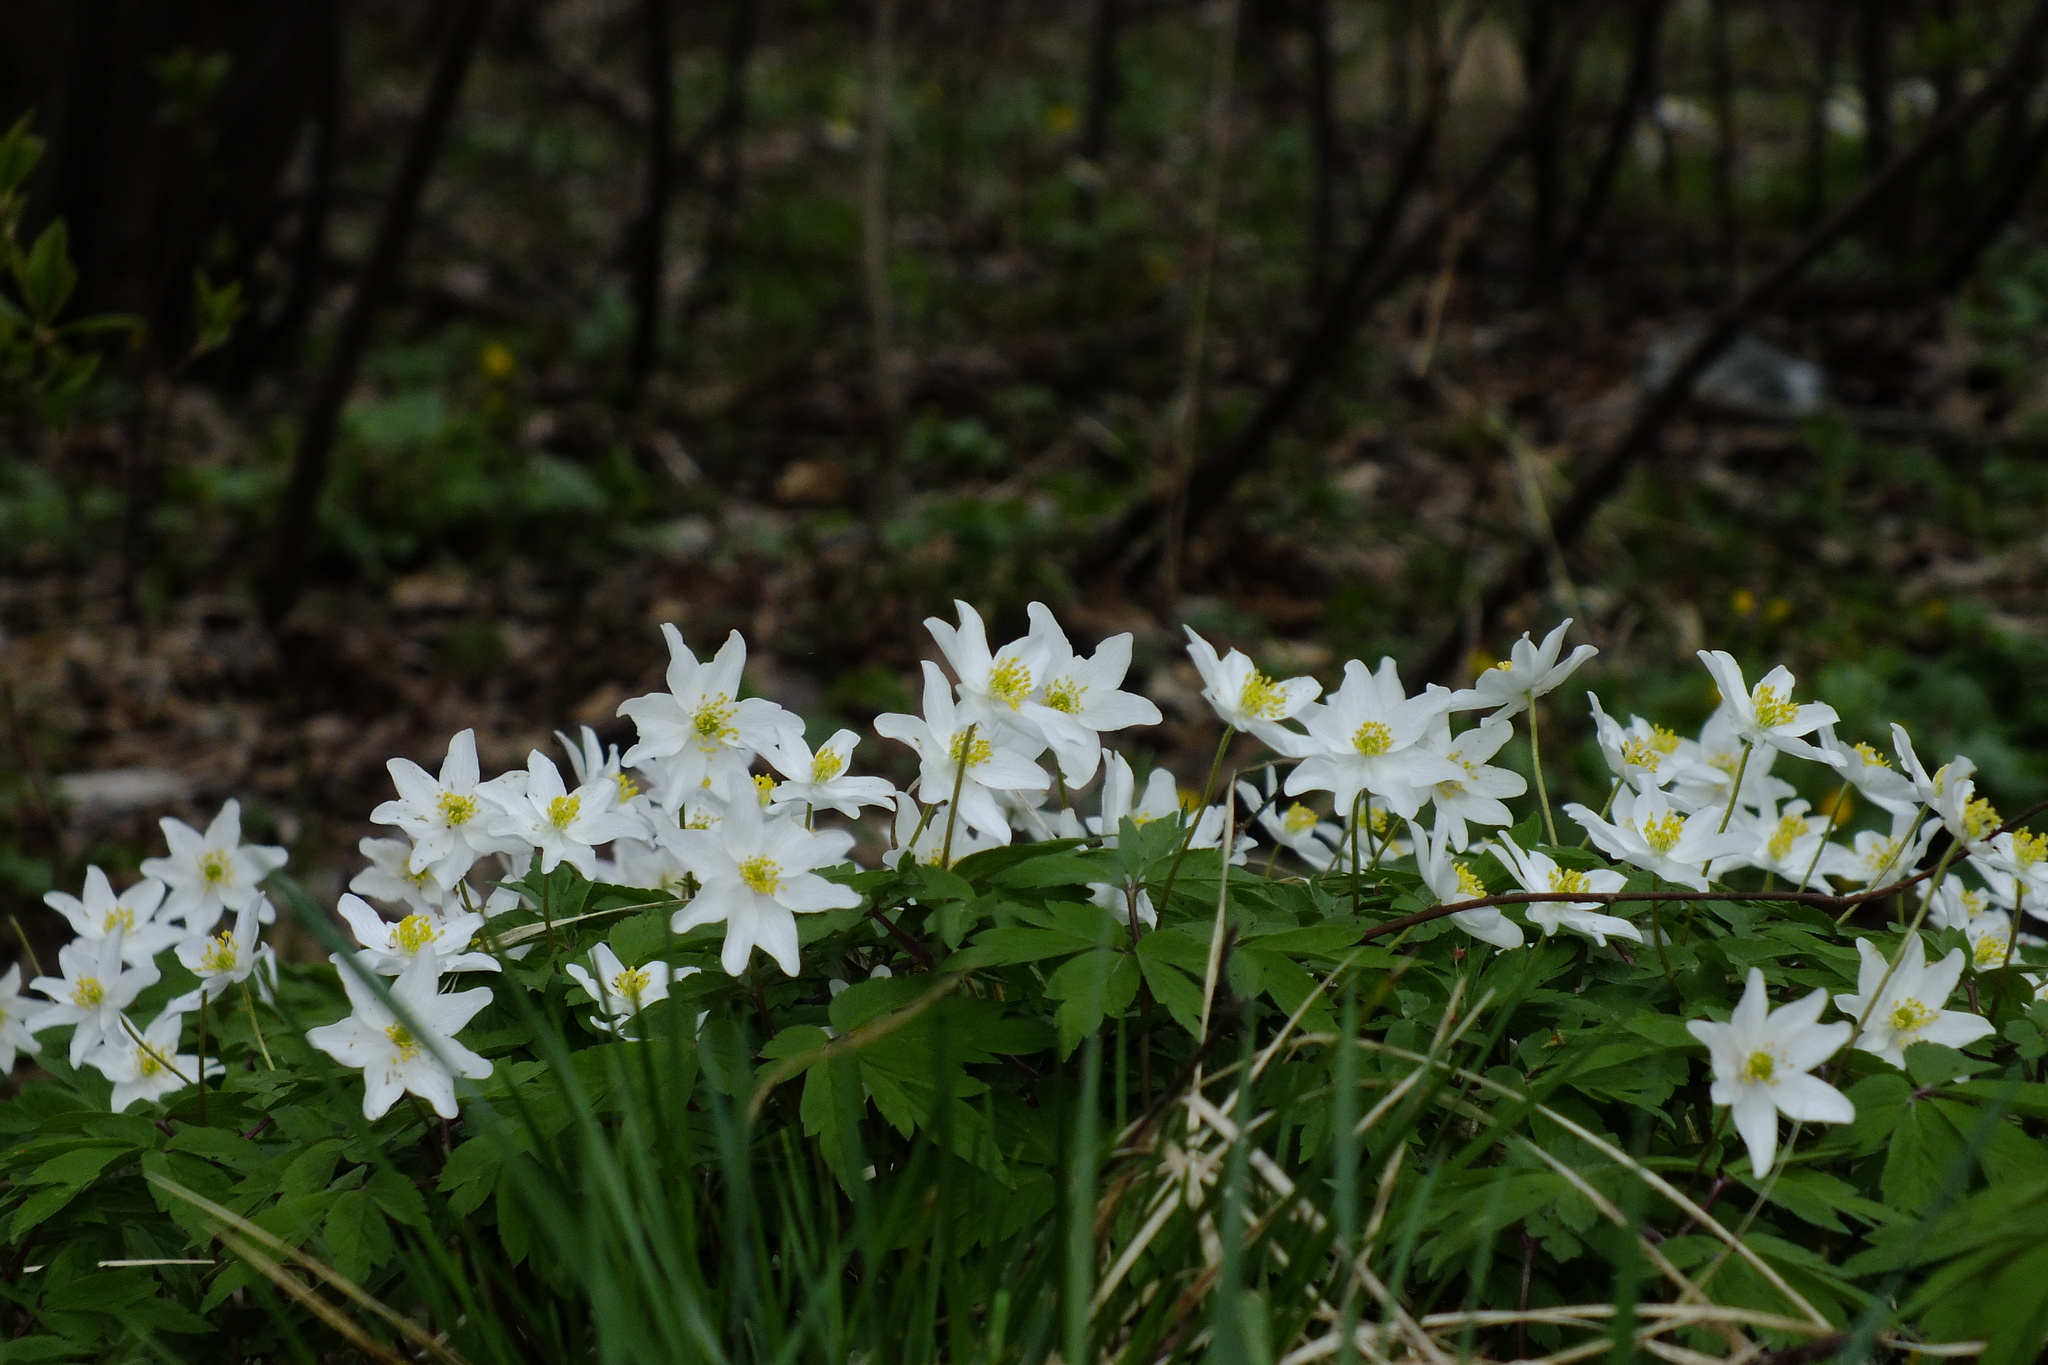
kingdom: Plantae
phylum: Tracheophyta
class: Magnoliopsida
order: Ranunculales
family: Ranunculaceae
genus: Anemone
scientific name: Anemone nemorosa
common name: Wood anemone
